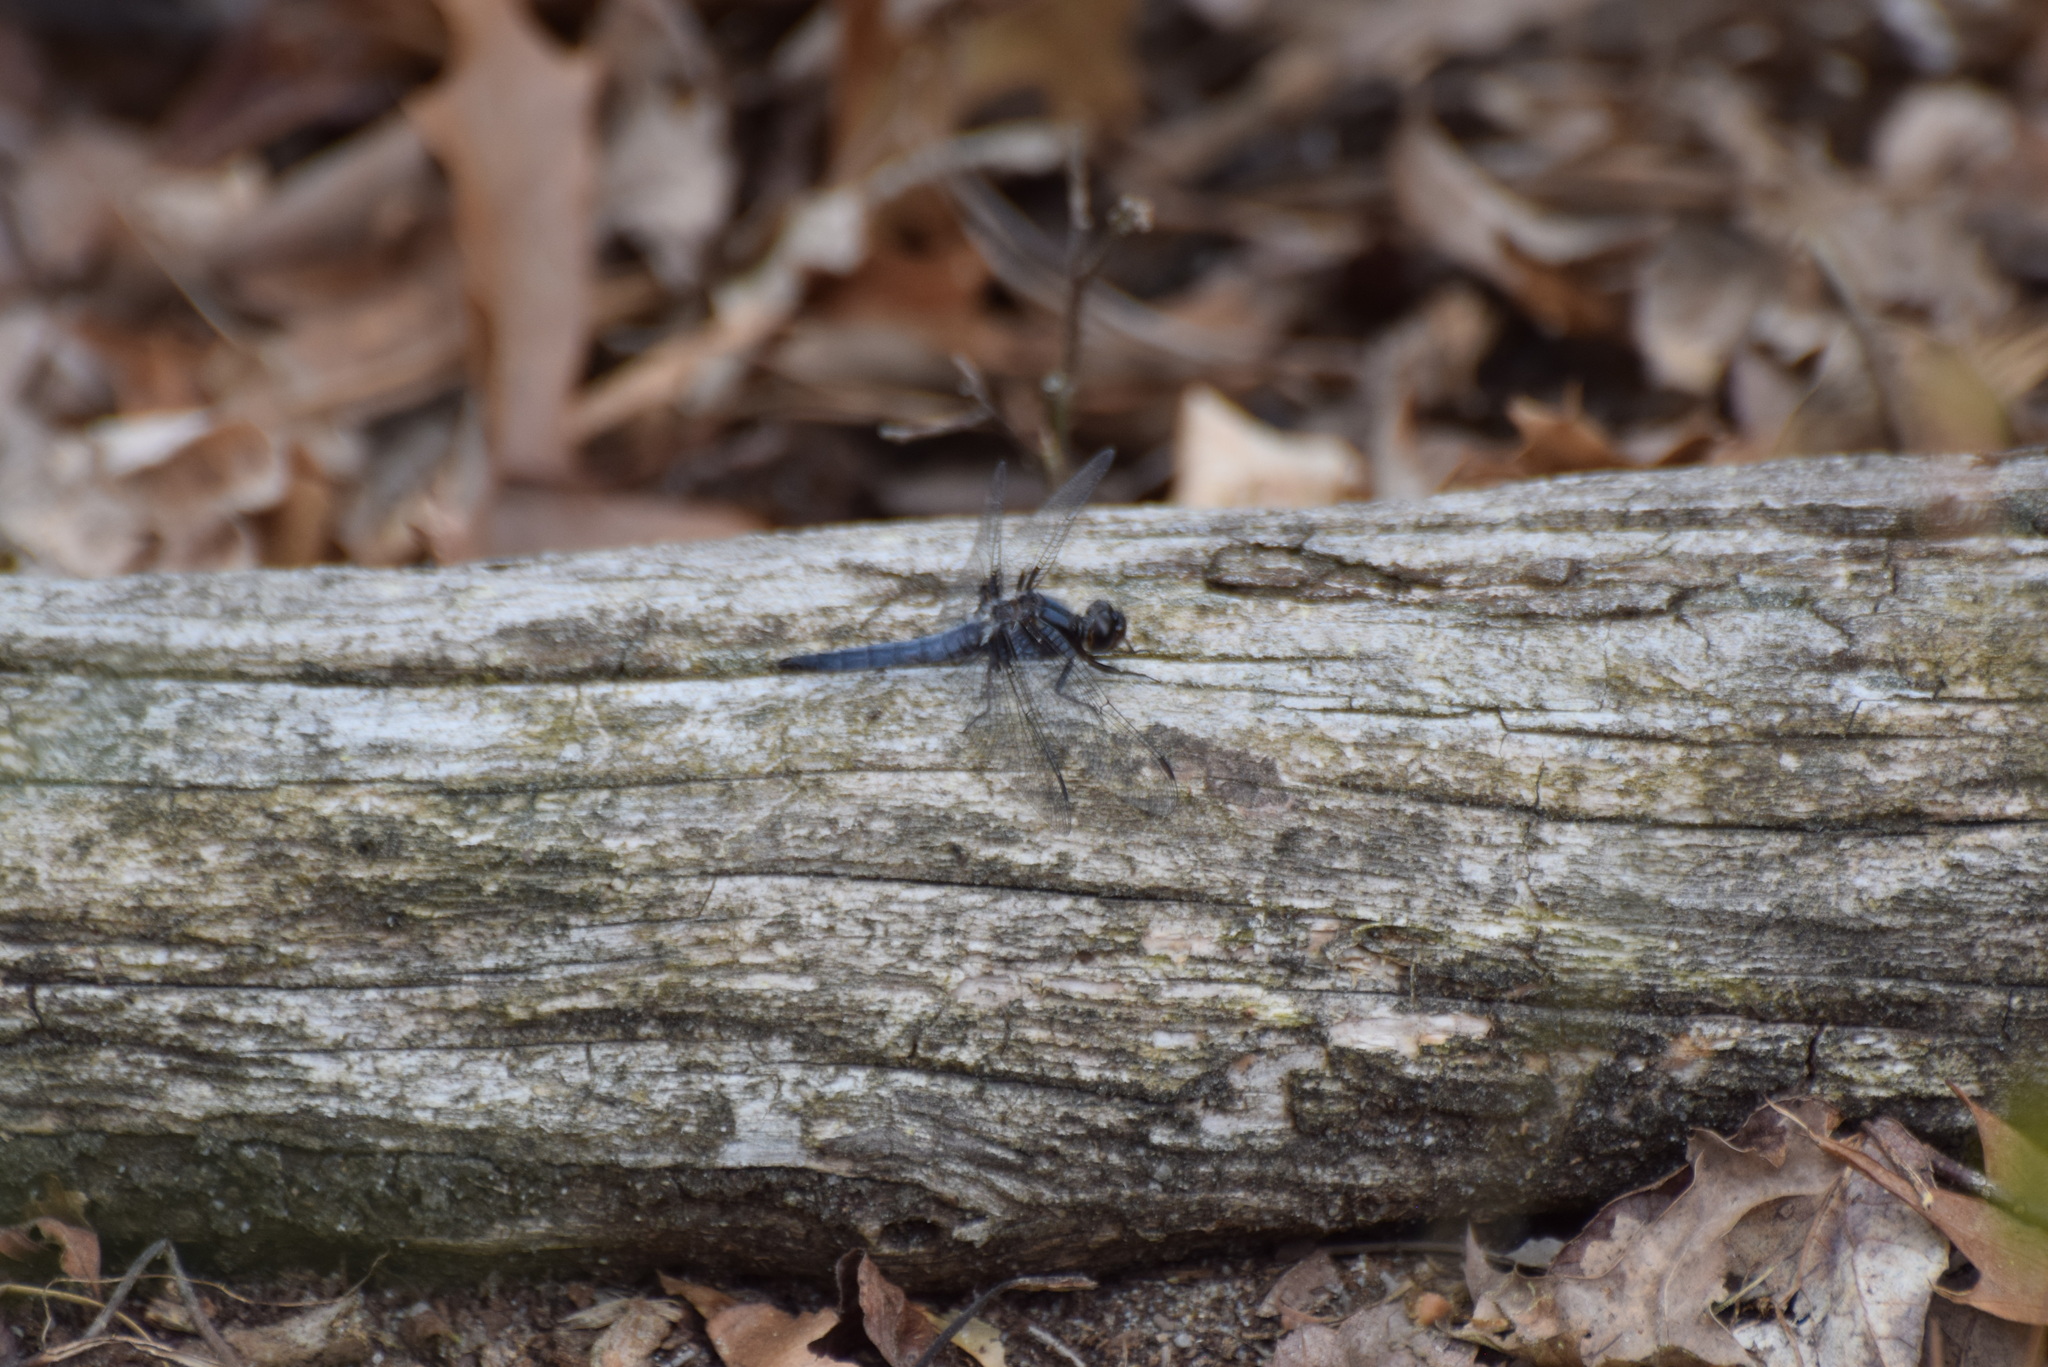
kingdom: Animalia
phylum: Arthropoda
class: Insecta
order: Odonata
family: Libellulidae
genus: Ladona
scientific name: Ladona deplanata
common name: Blue corporal
